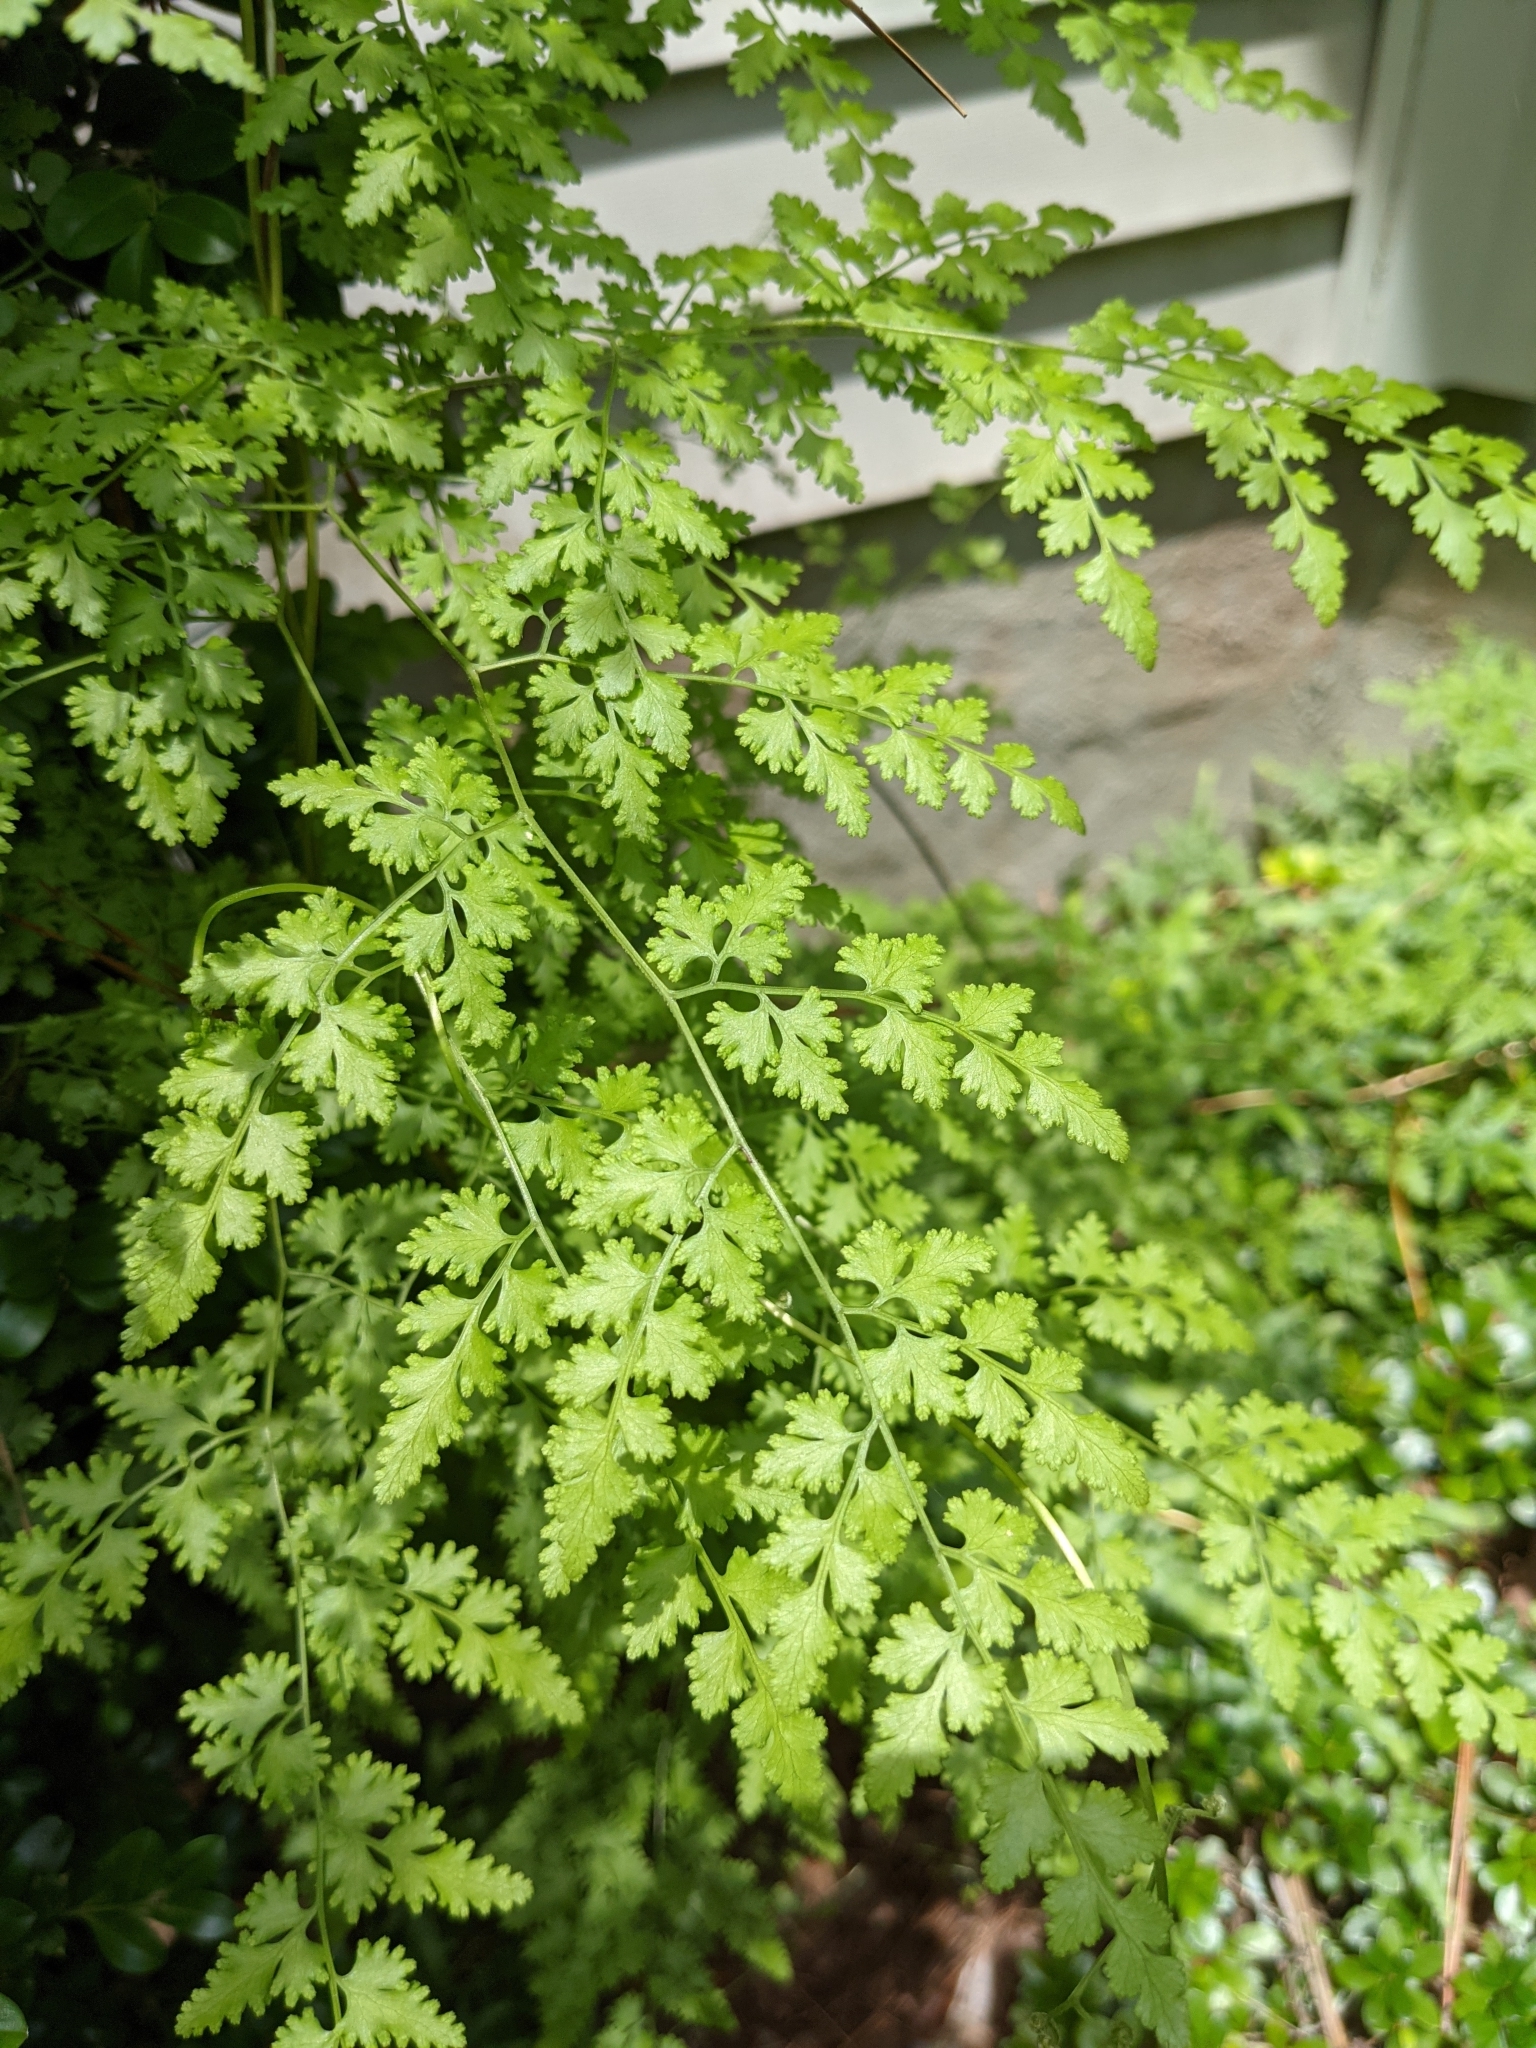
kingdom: Plantae
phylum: Tracheophyta
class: Polypodiopsida
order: Schizaeales
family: Lygodiaceae
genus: Lygodium
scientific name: Lygodium japonicum
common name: Japanese climbing fern
